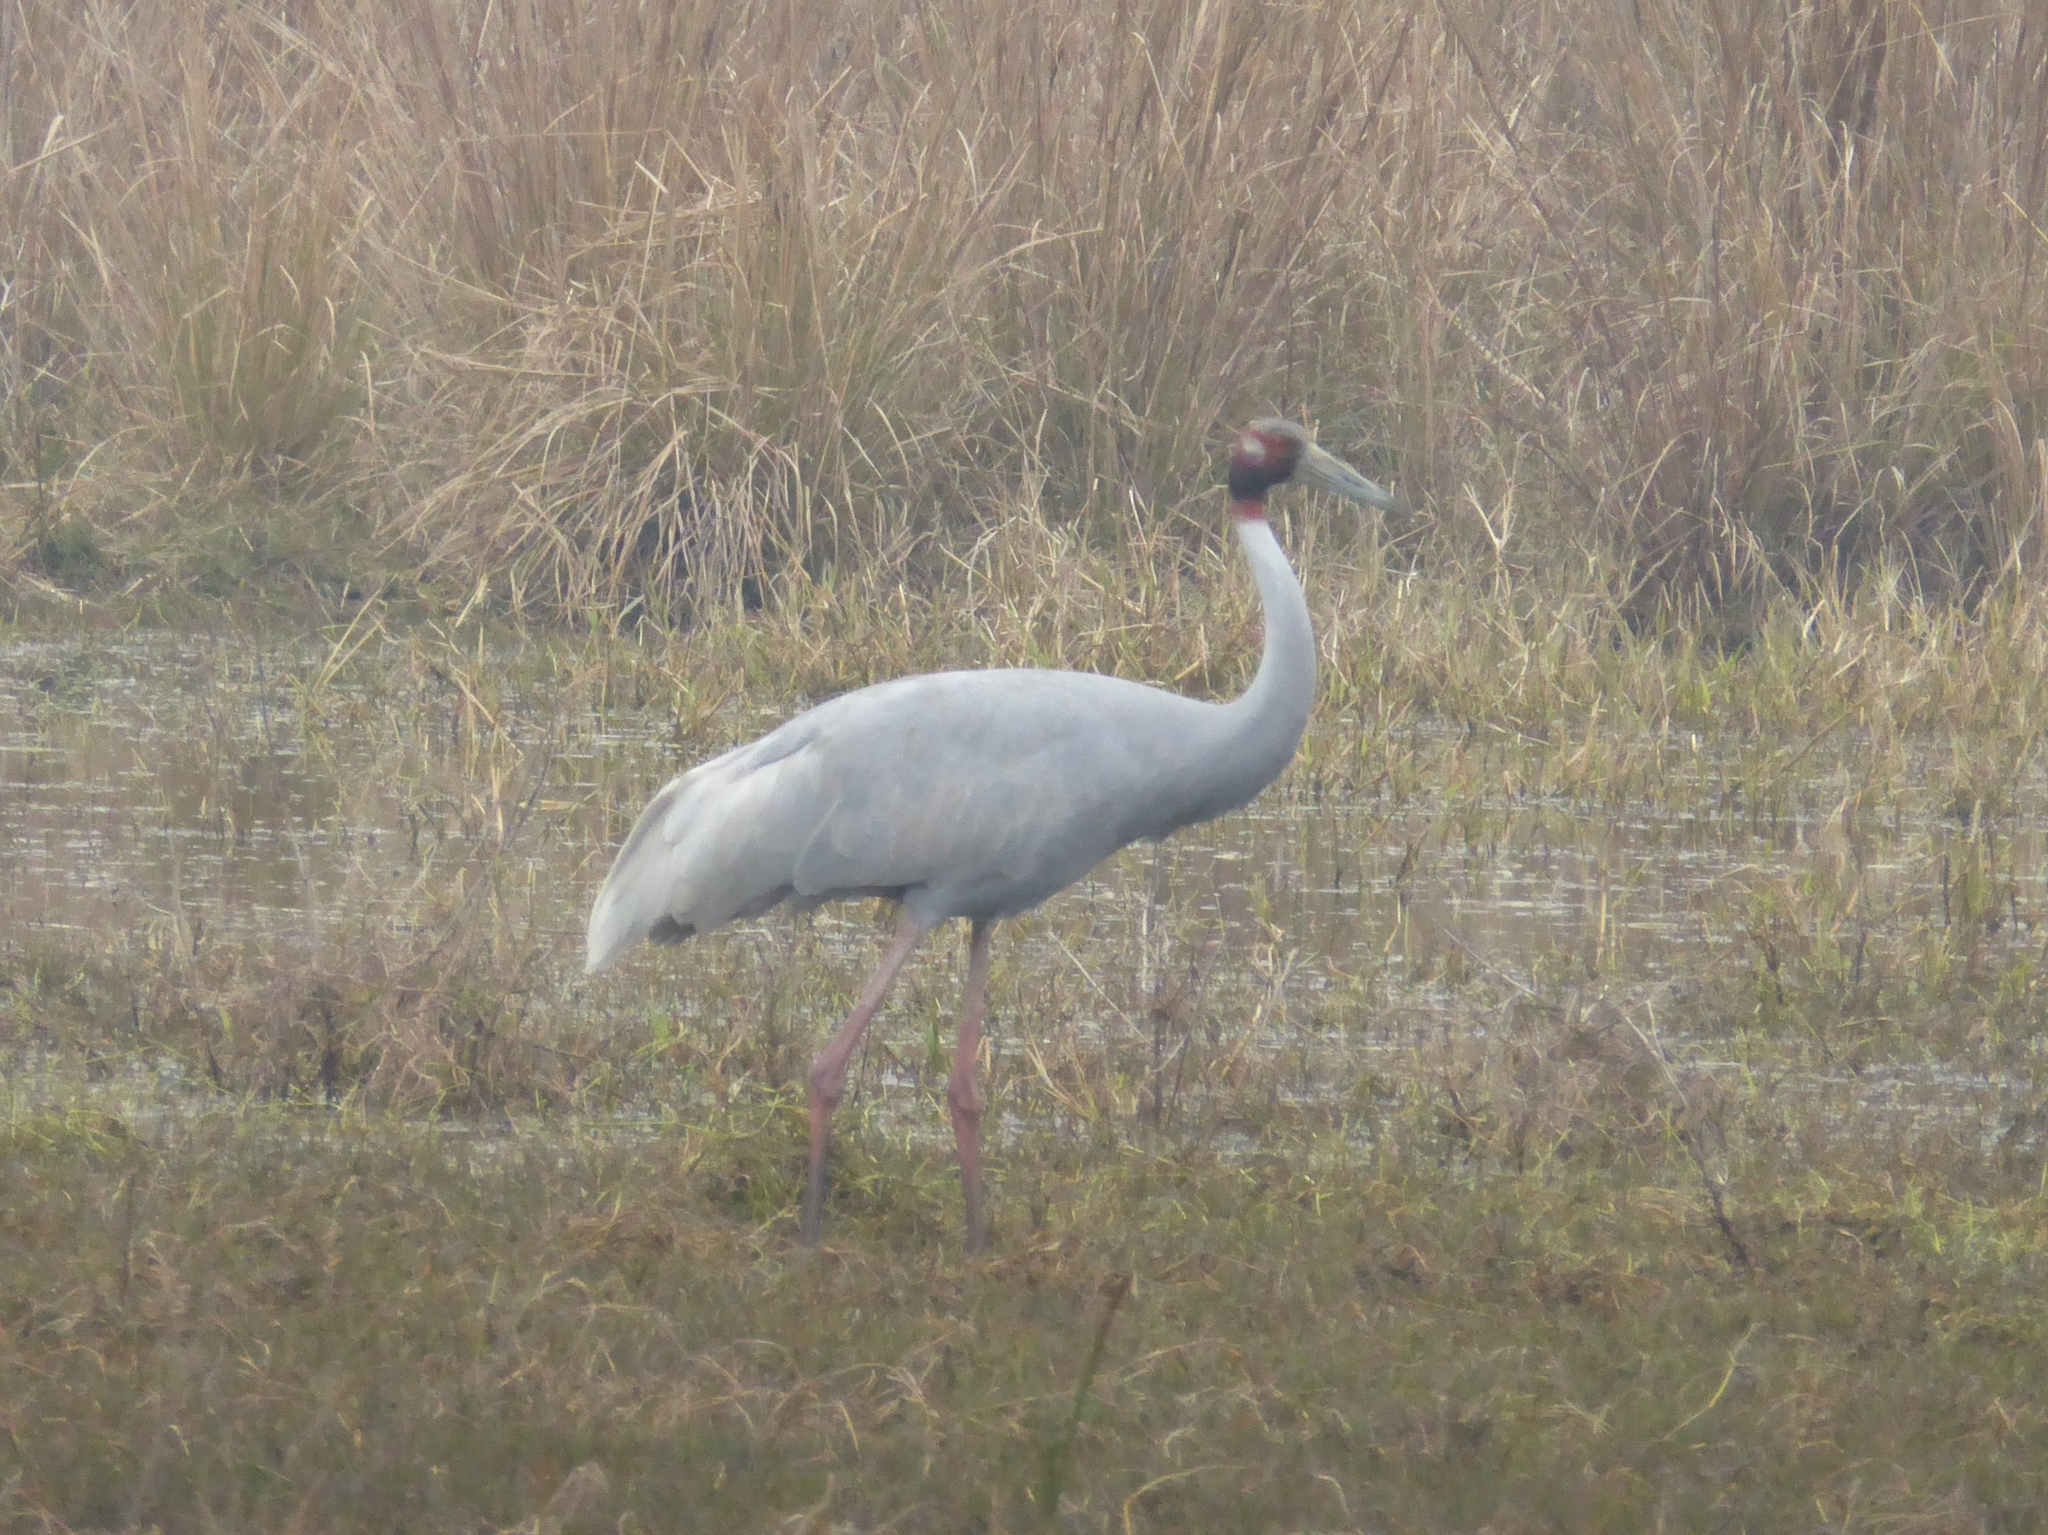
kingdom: Animalia
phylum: Chordata
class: Aves
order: Gruiformes
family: Gruidae
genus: Grus
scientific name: Grus antigone
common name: Sarus crane
